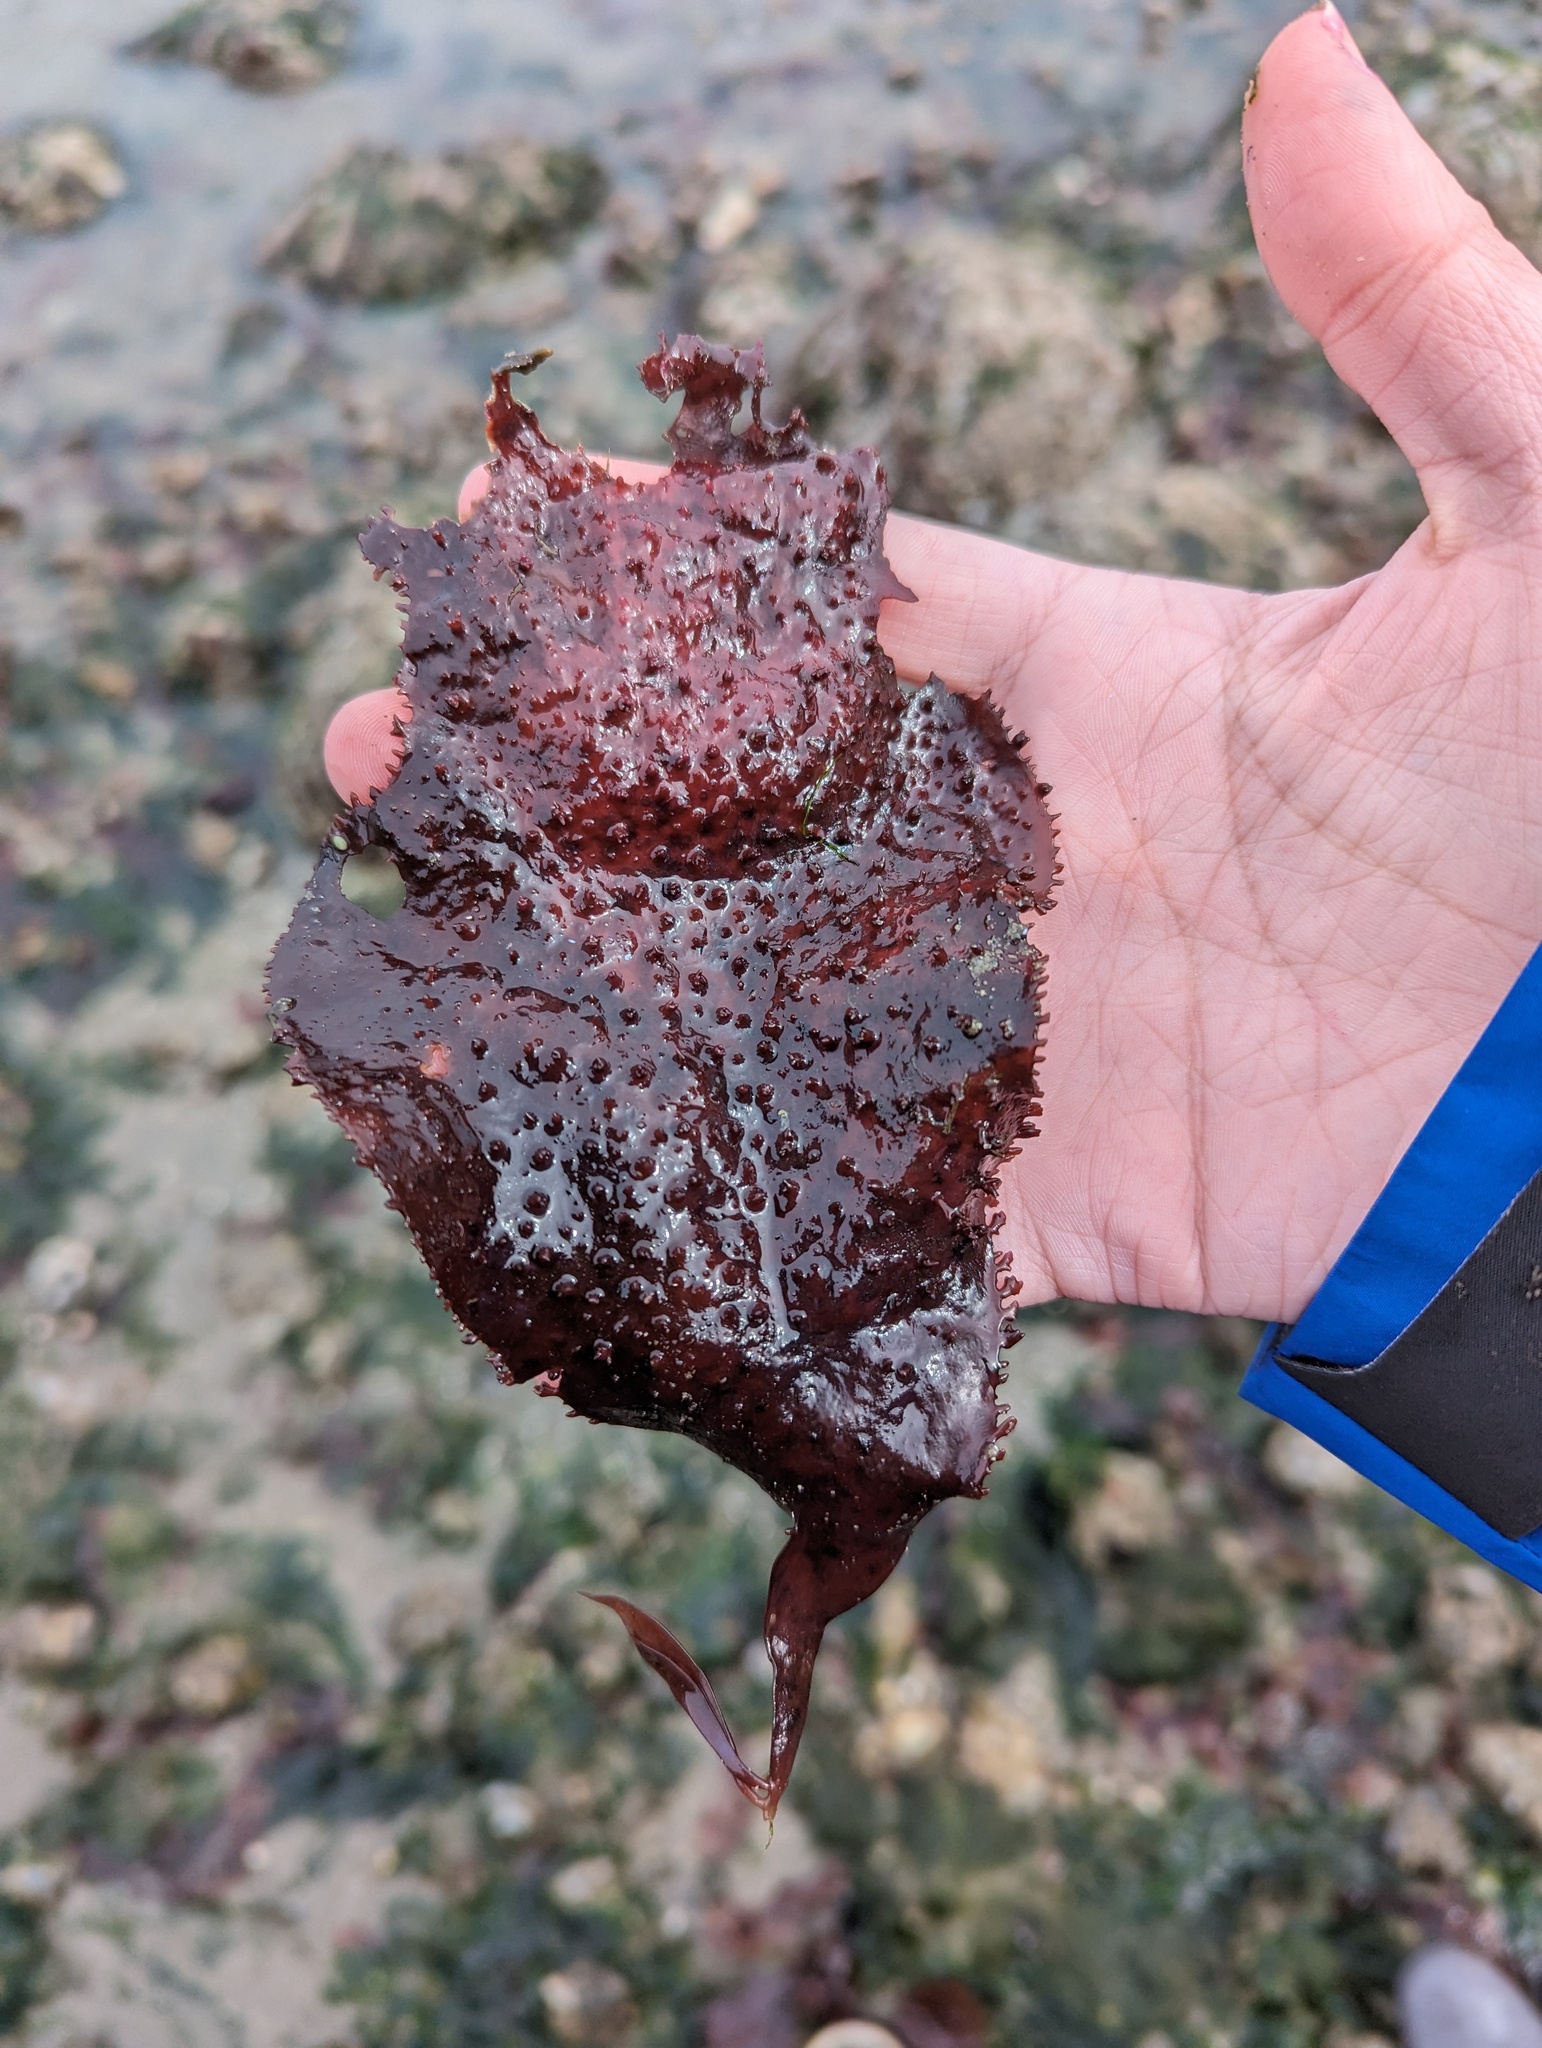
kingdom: Plantae
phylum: Rhodophyta
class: Florideophyceae
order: Gigartinales
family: Gigartinaceae
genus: Chondracanthus
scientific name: Chondracanthus exasperatus
